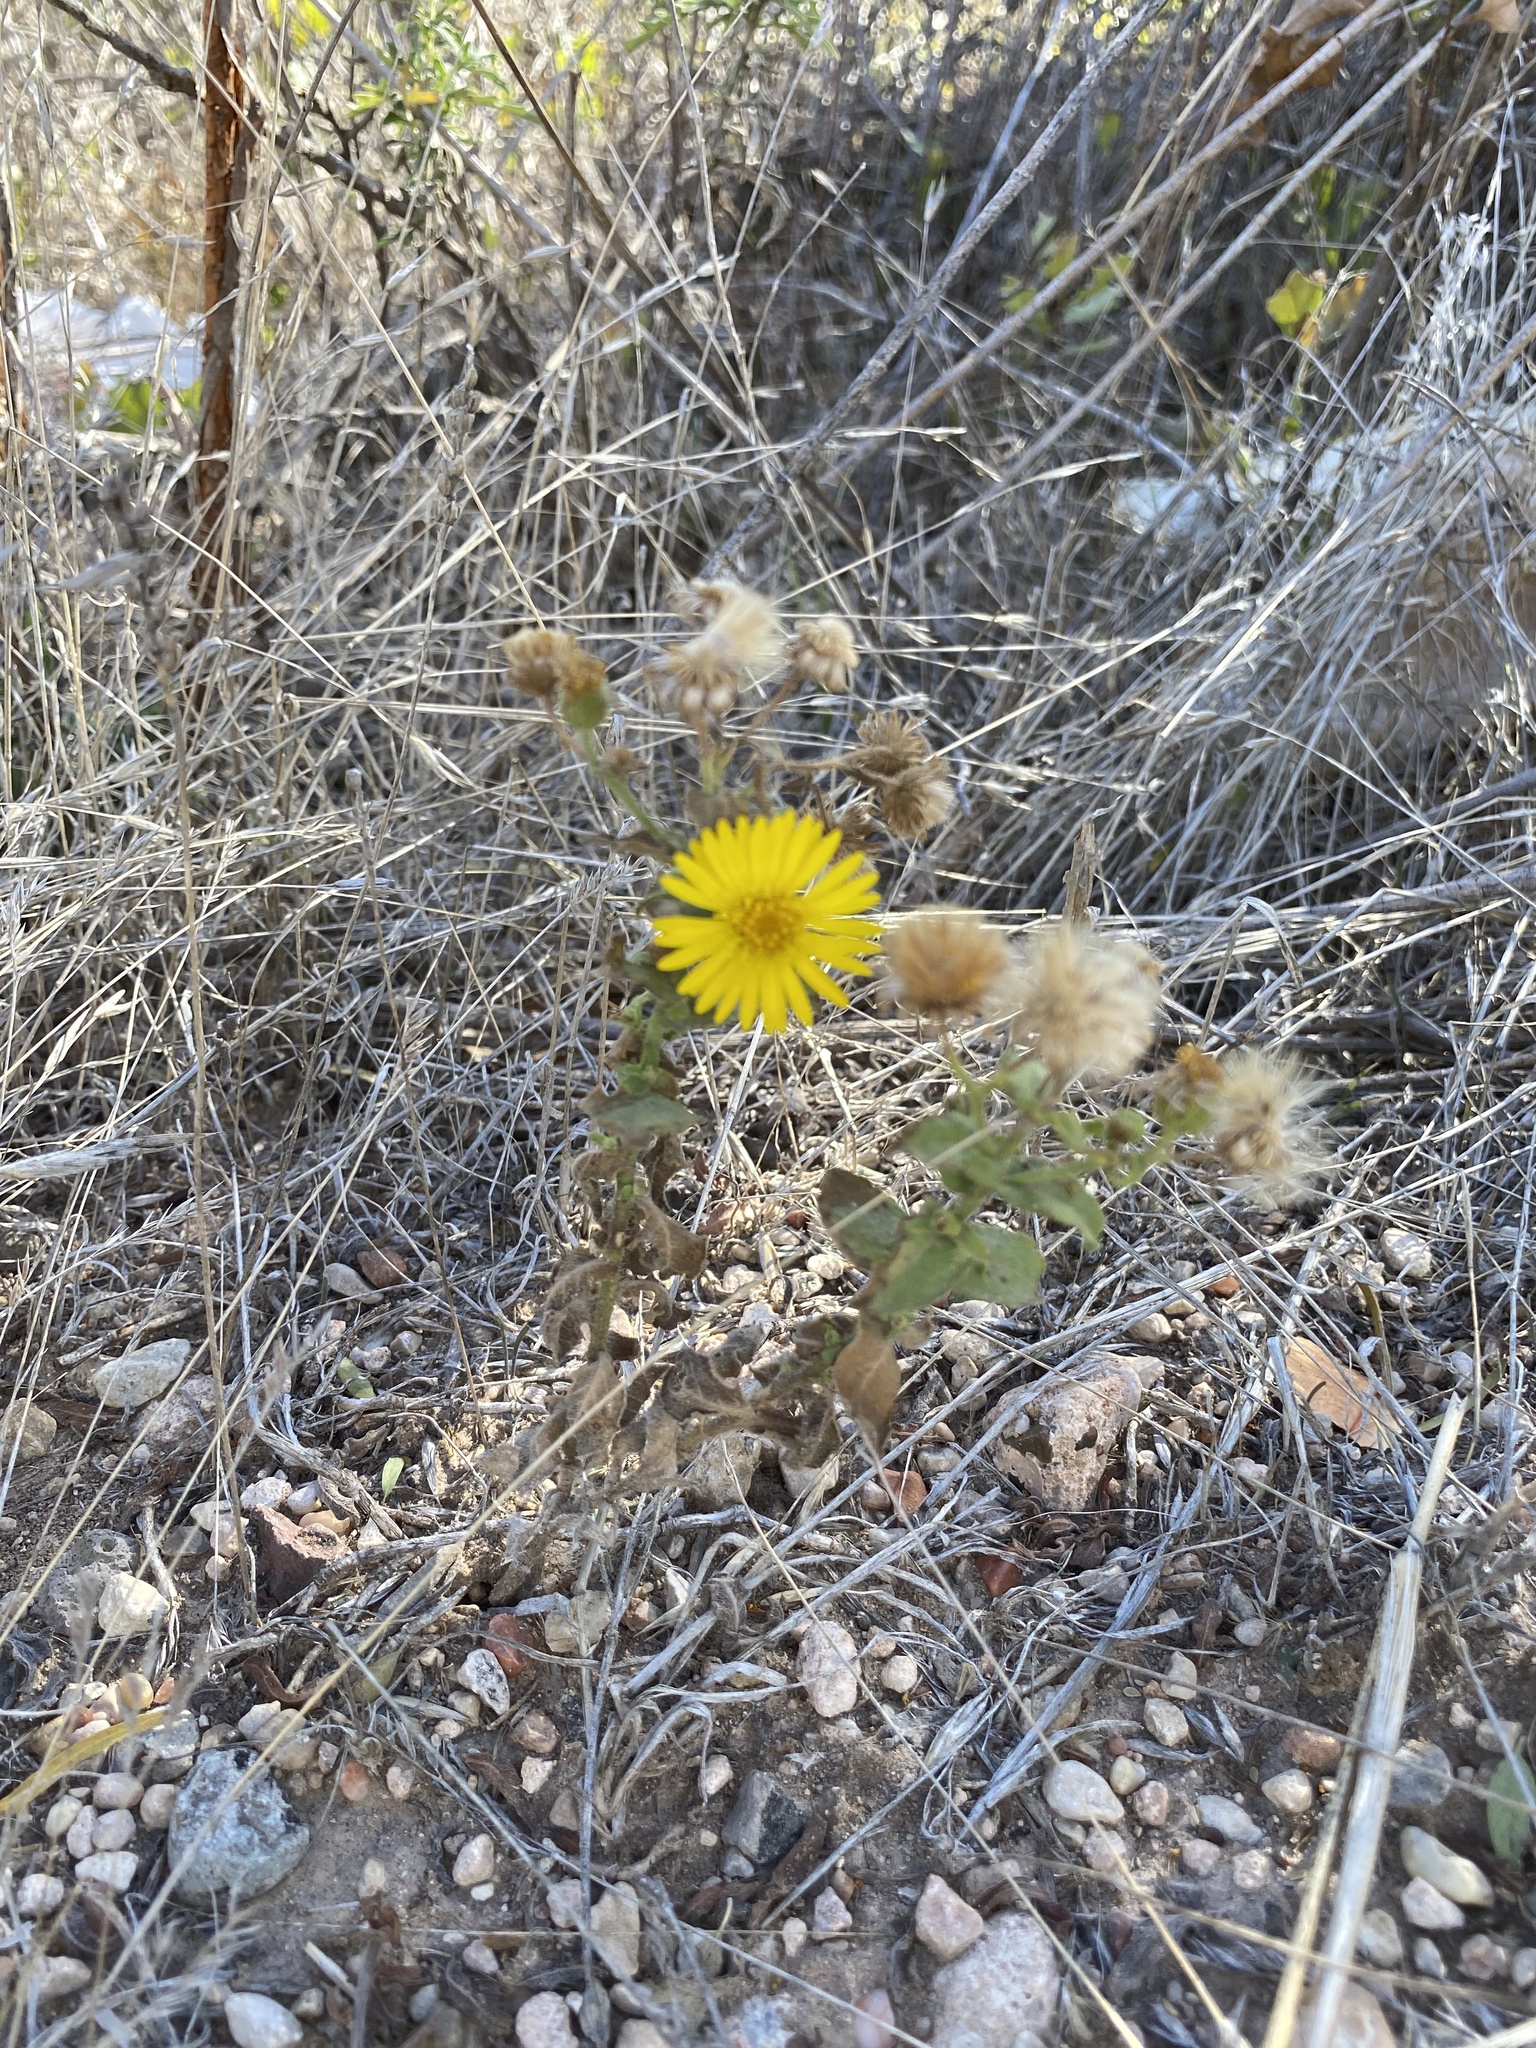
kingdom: Plantae
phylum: Tracheophyta
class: Magnoliopsida
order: Asterales
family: Asteraceae
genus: Heterotheca
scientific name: Heterotheca subaxillaris
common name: Camphorweed
